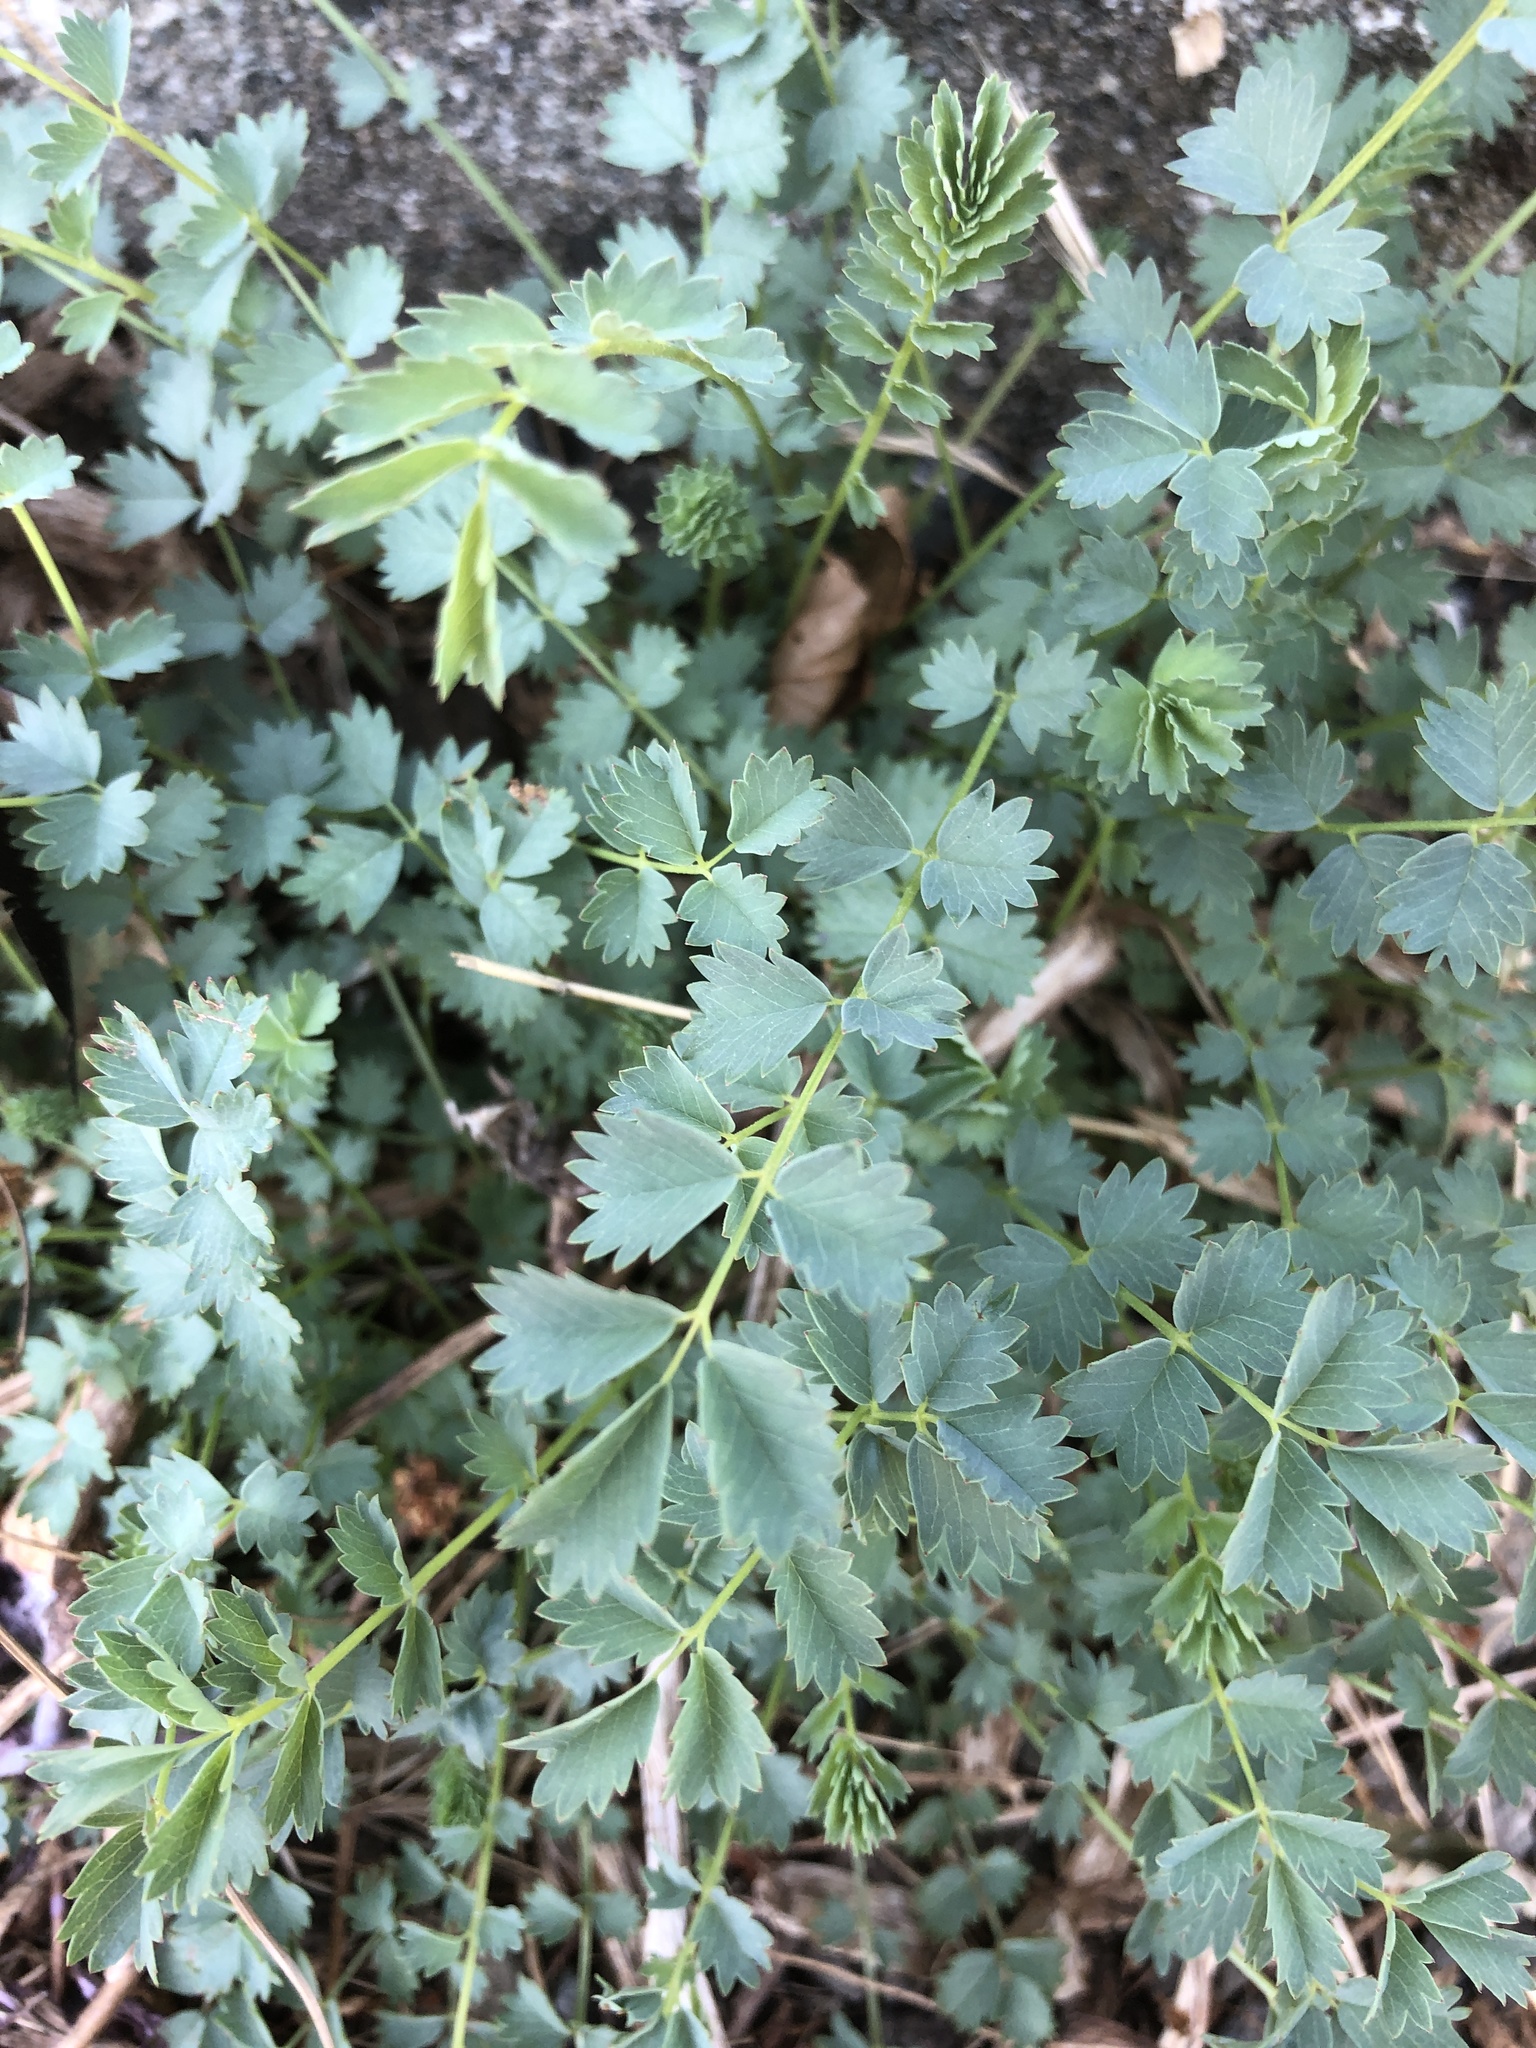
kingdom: Plantae
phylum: Tracheophyta
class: Magnoliopsida
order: Rosales
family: Rosaceae
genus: Poterium
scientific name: Poterium sanguisorba
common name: Salad burnet
